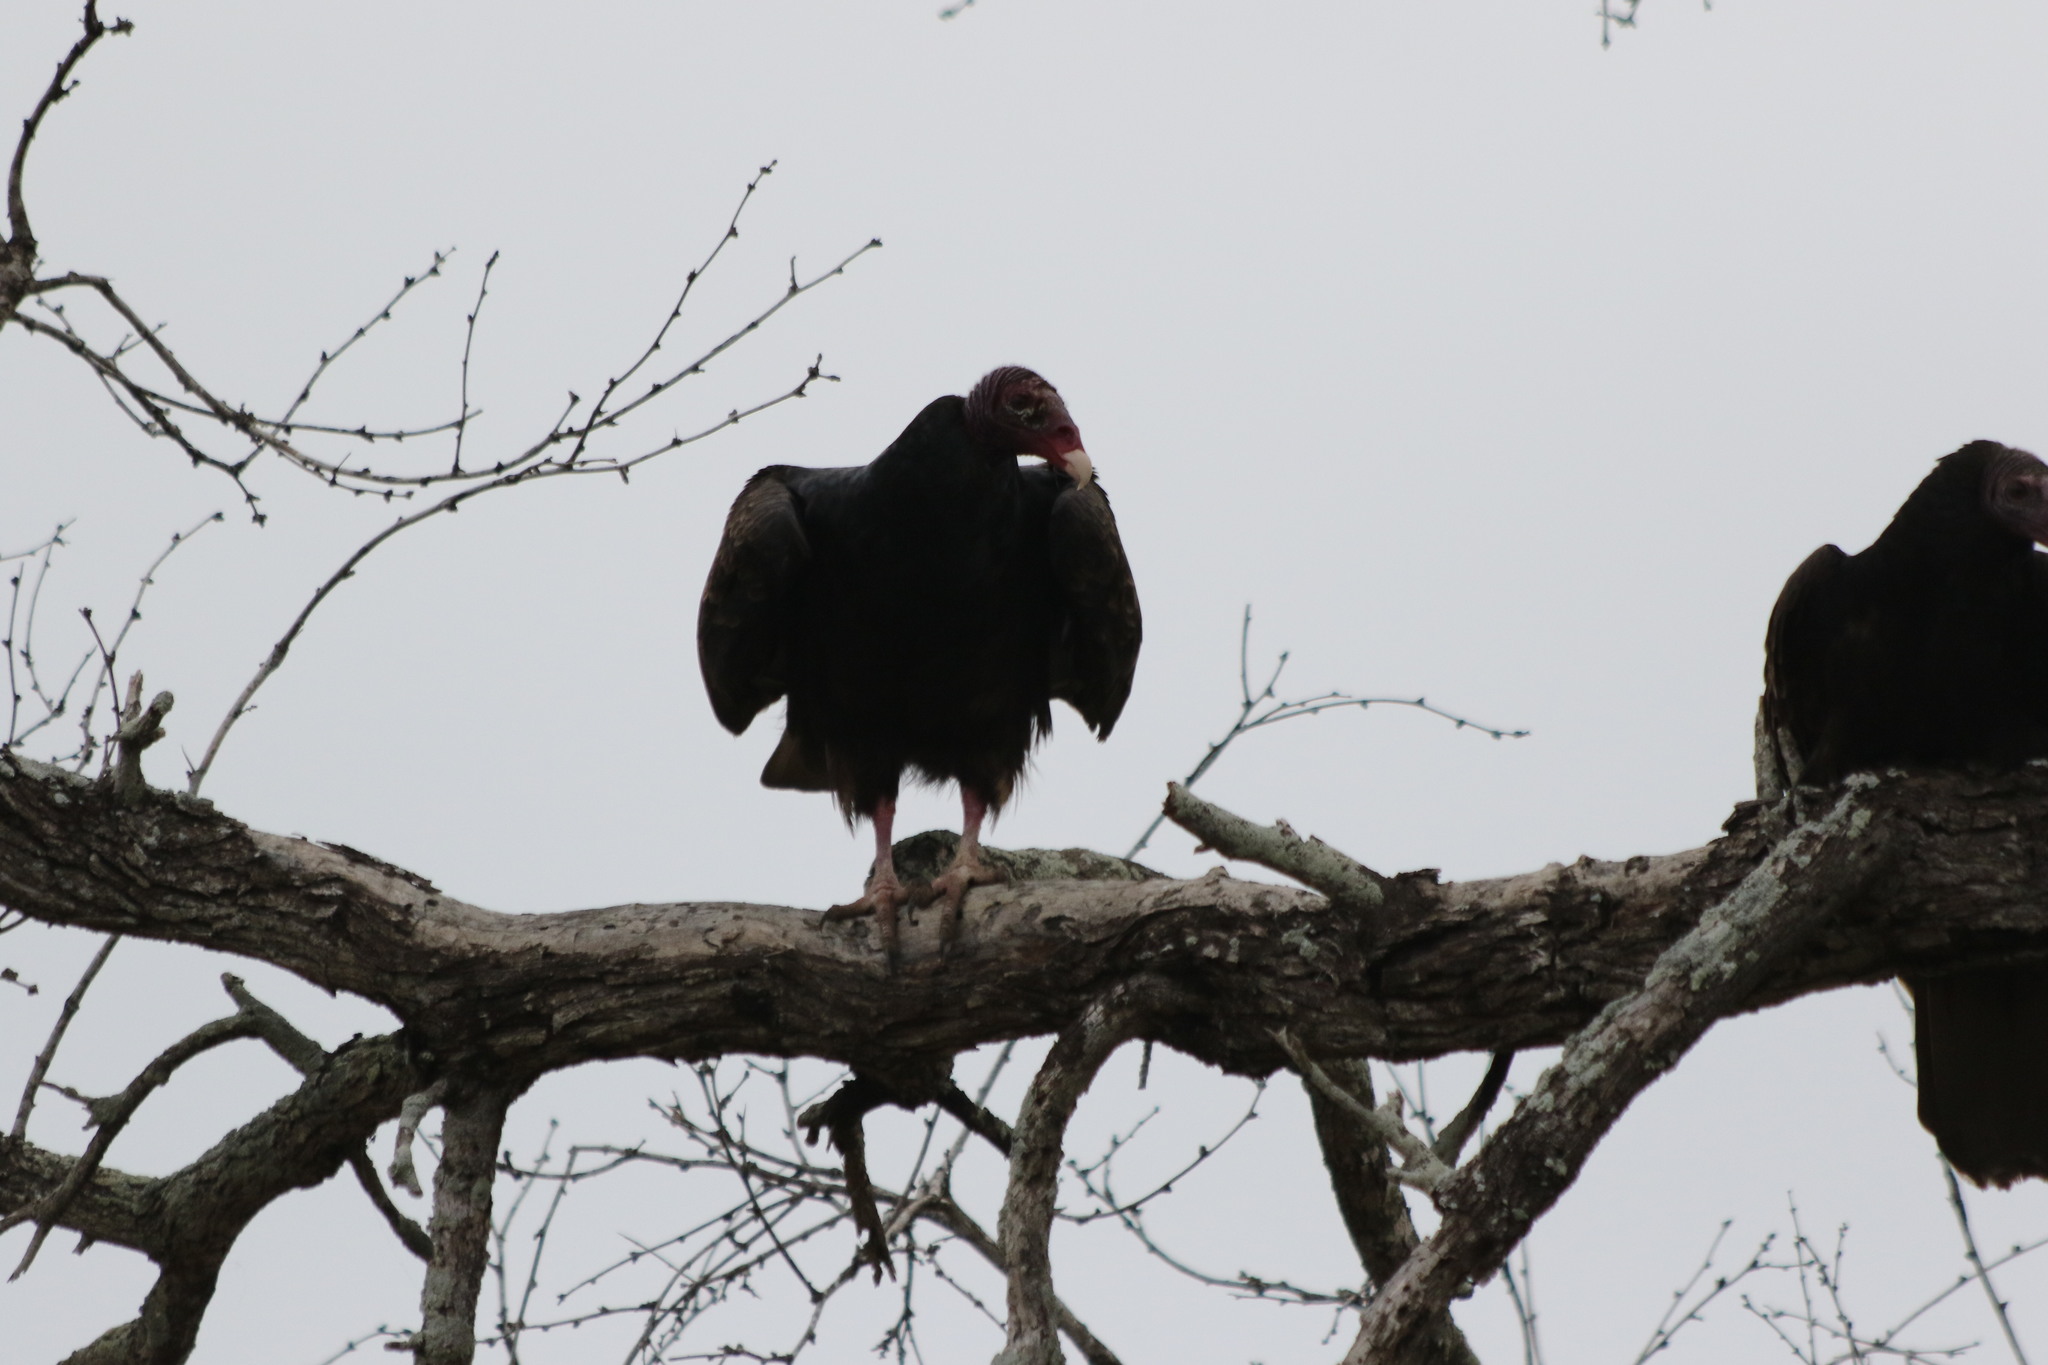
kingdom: Animalia
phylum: Chordata
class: Aves
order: Accipitriformes
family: Cathartidae
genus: Cathartes
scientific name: Cathartes aura
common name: Turkey vulture
